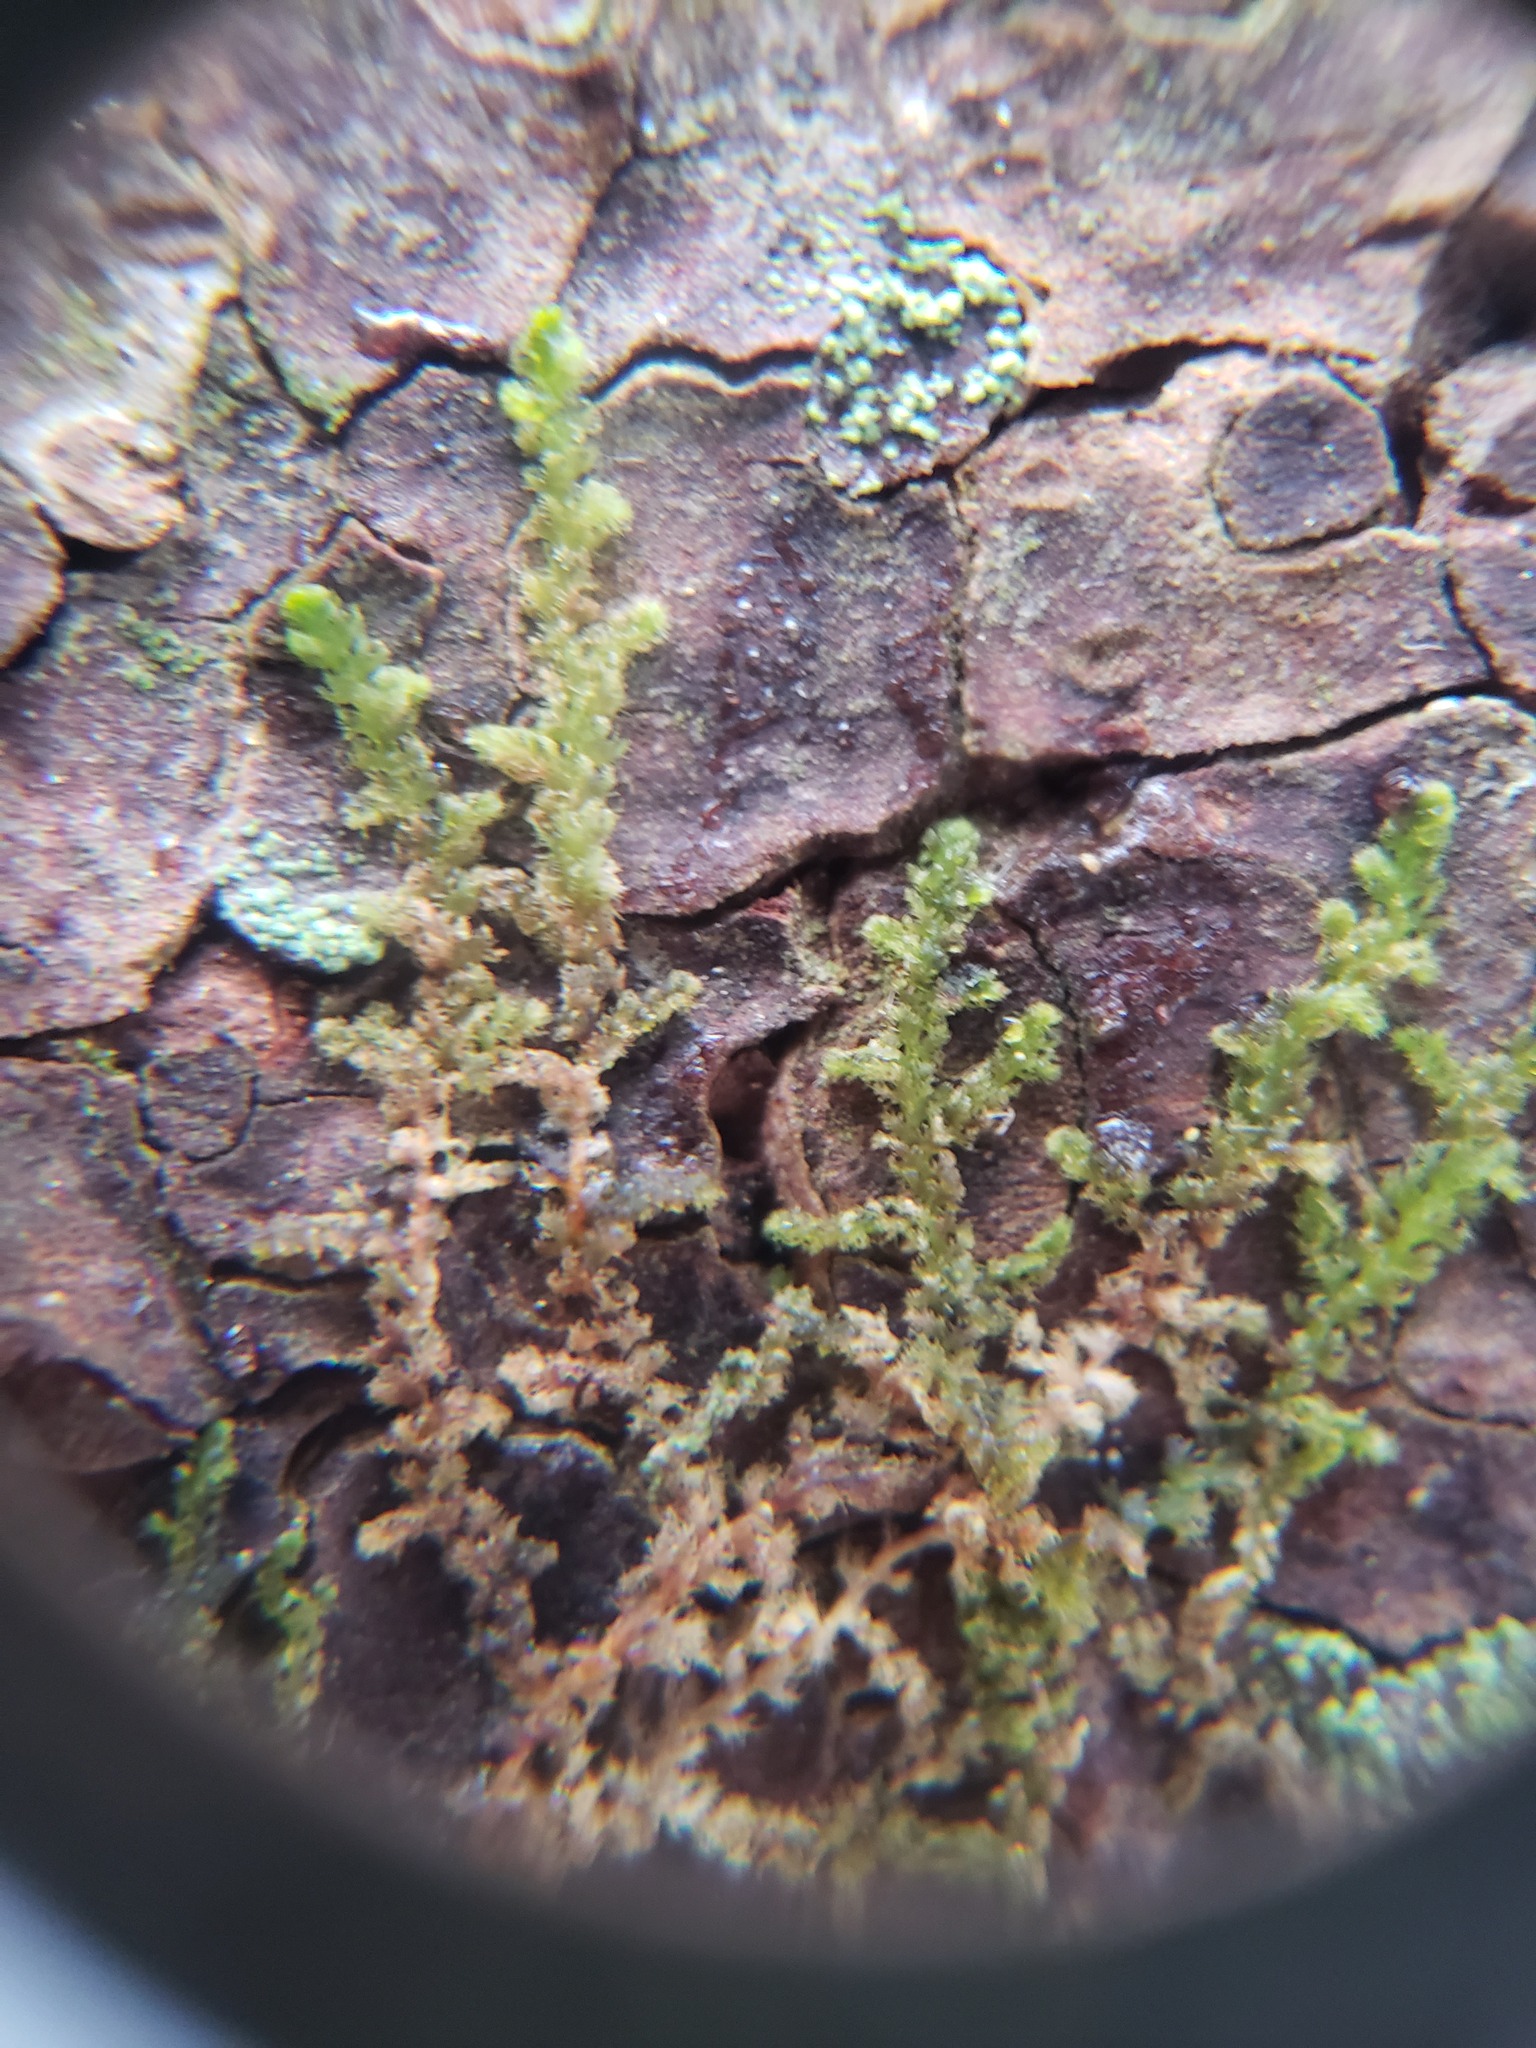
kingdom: Plantae
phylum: Marchantiophyta
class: Jungermanniopsida
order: Ptilidiales
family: Ptilidiaceae
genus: Ptilidium
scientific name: Ptilidium pulcherrimum
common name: Tree fringewort
